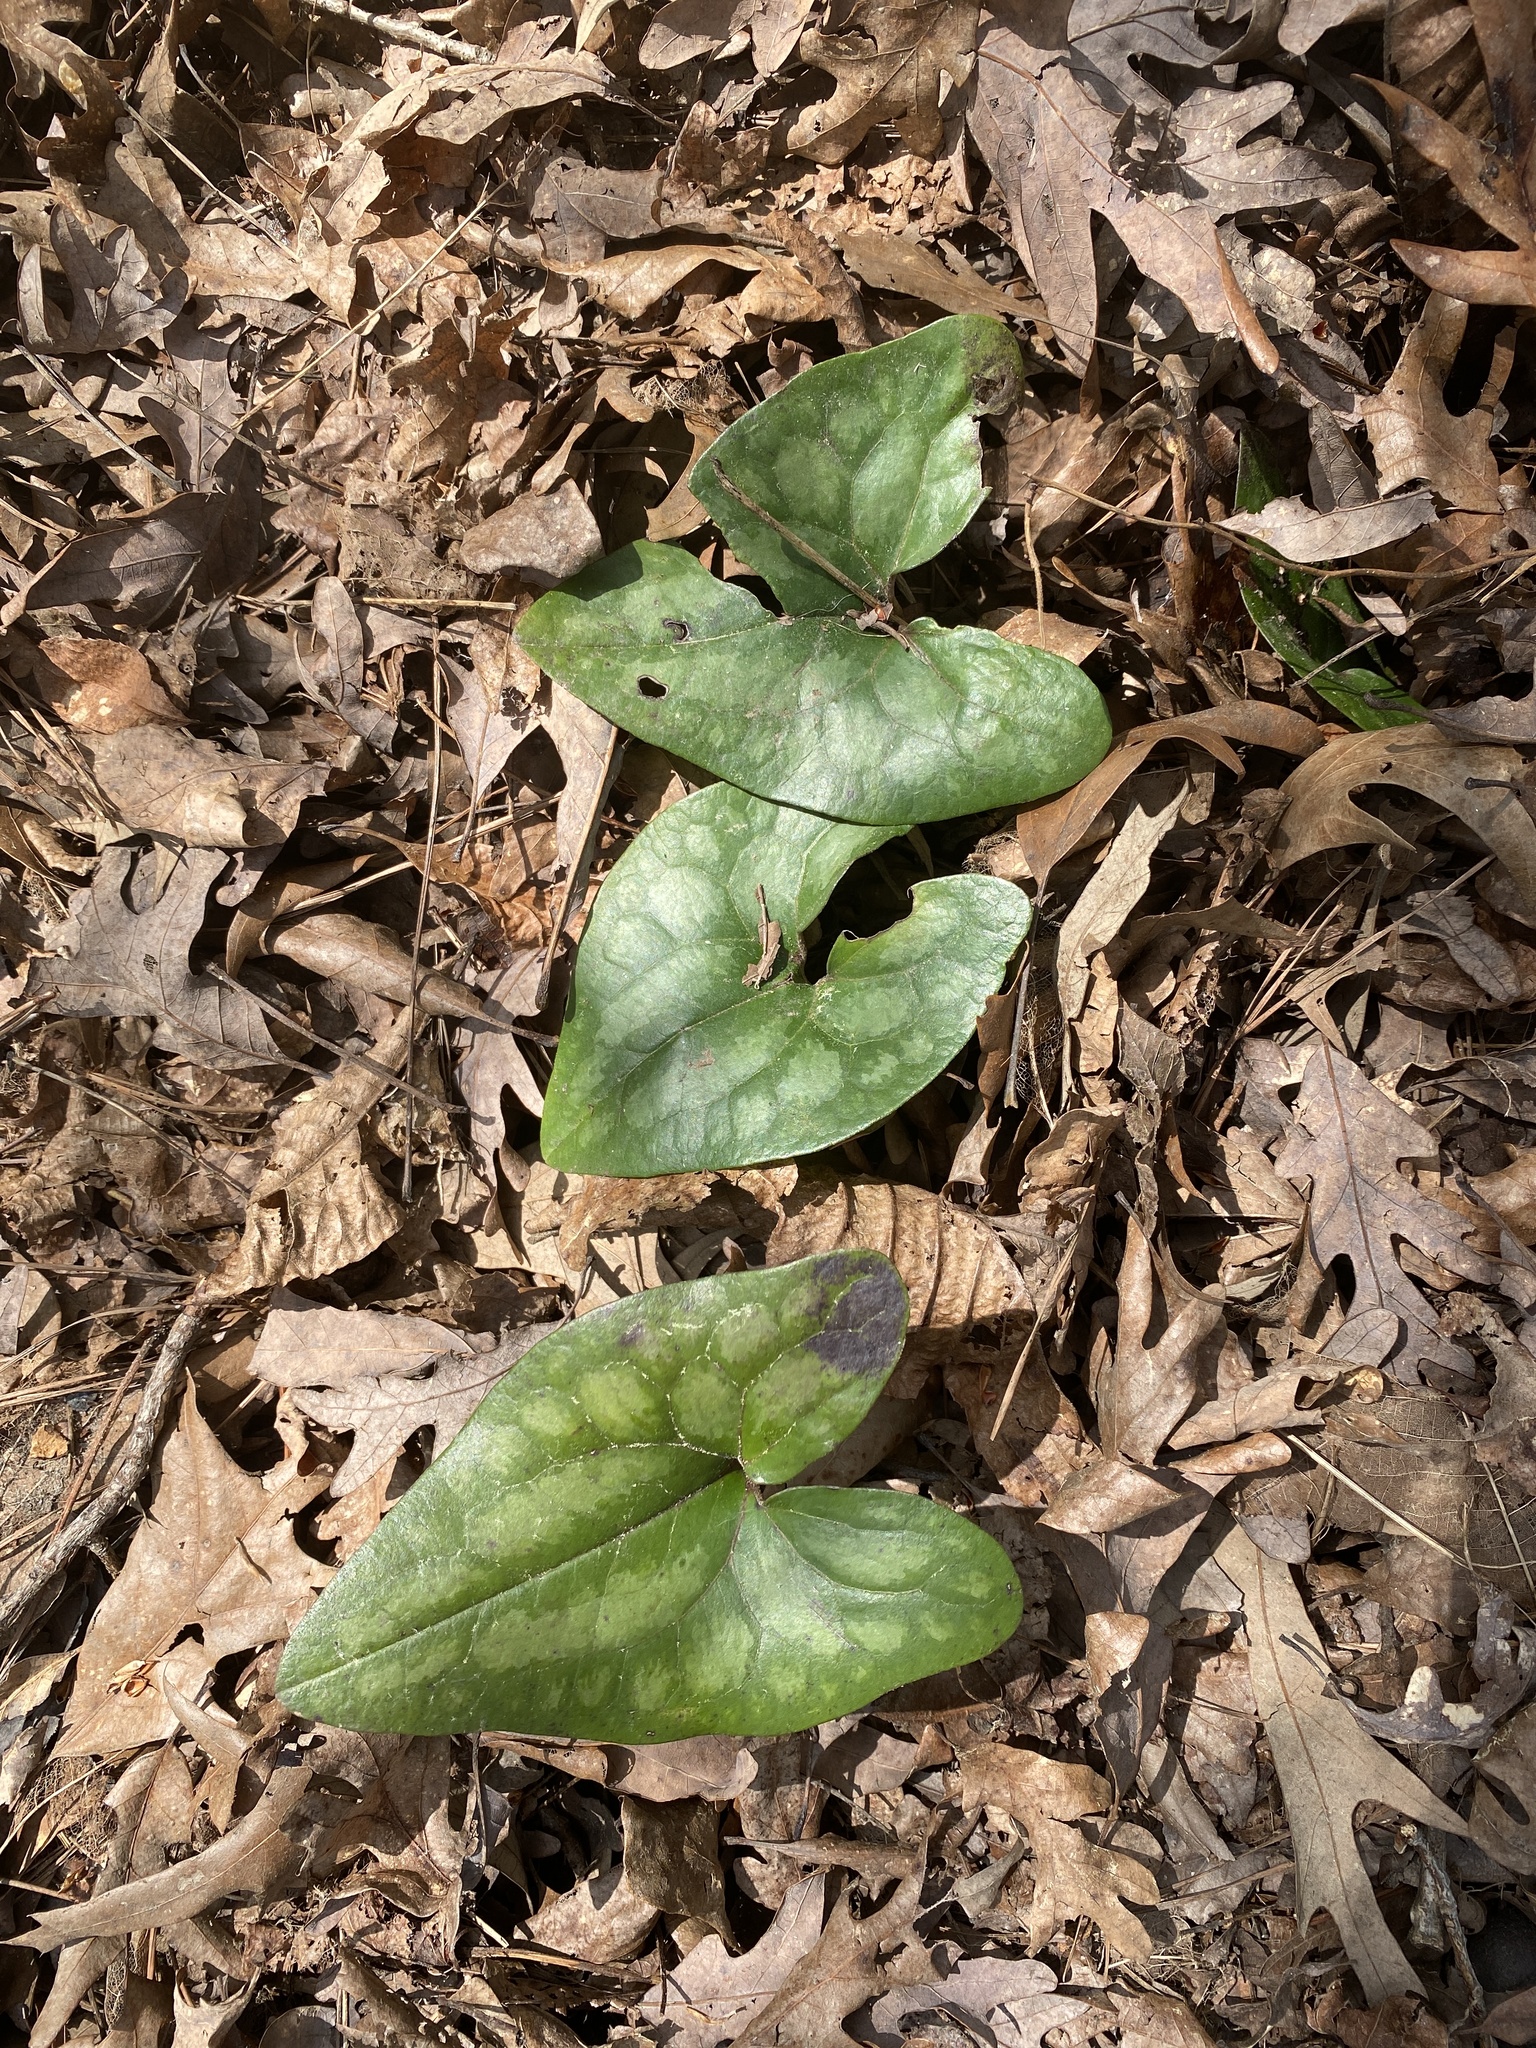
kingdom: Plantae
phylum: Tracheophyta
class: Magnoliopsida
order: Piperales
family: Aristolochiaceae
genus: Hexastylis
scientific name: Hexastylis arifolia
